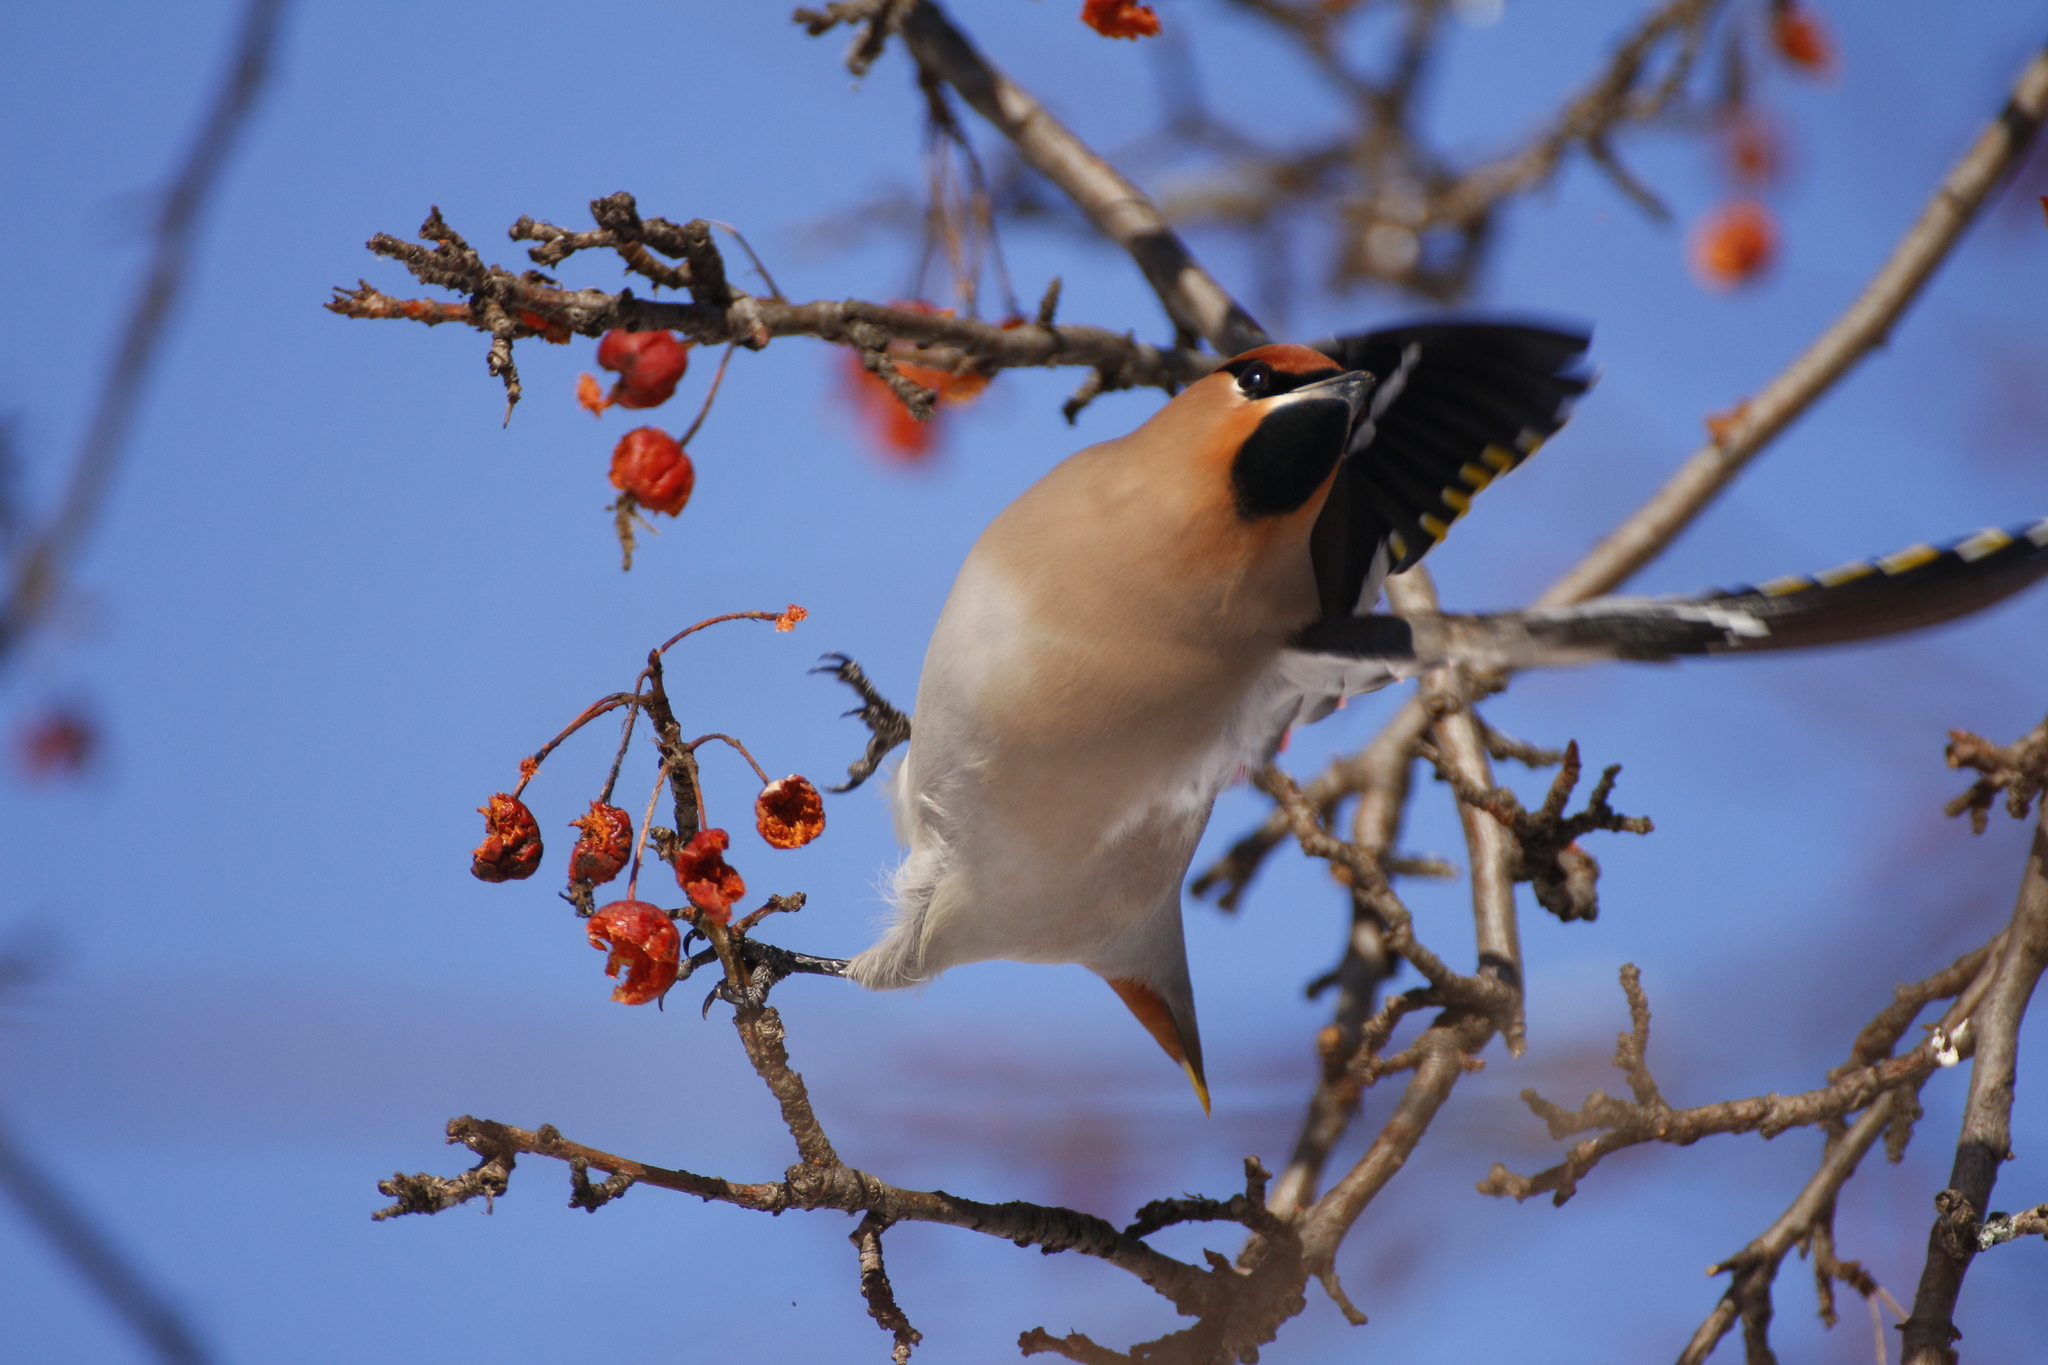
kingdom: Animalia
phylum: Chordata
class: Aves
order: Passeriformes
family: Bombycillidae
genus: Bombycilla
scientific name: Bombycilla garrulus
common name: Bohemian waxwing
